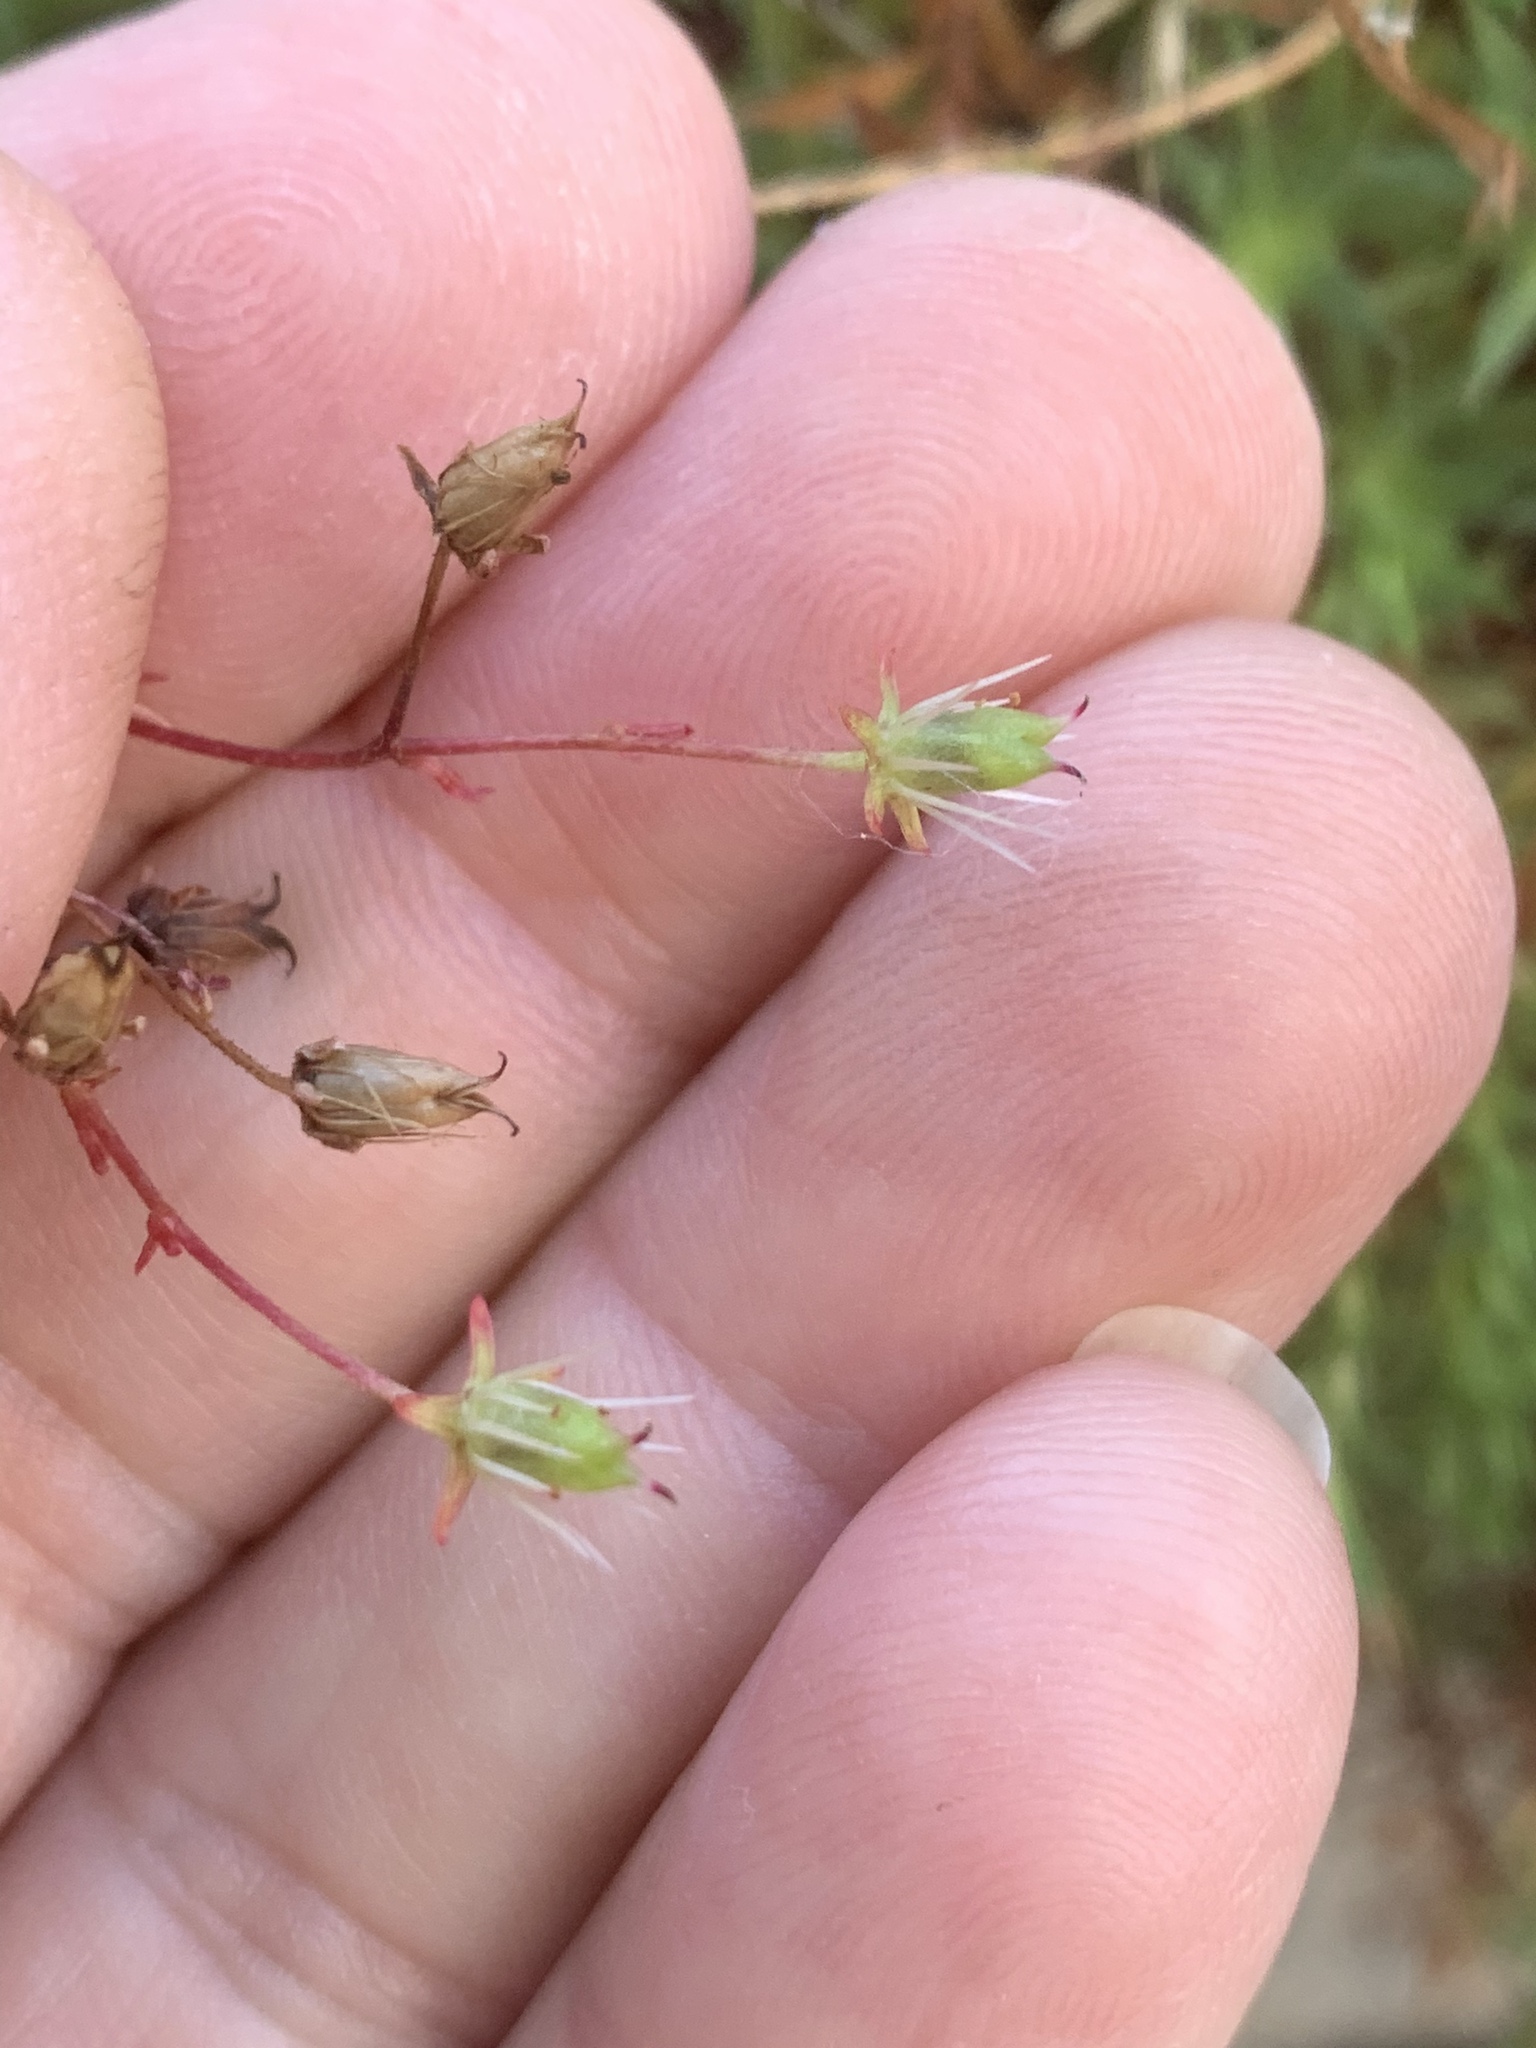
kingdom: Plantae
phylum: Tracheophyta
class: Magnoliopsida
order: Saxifragales
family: Saxifragaceae
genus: Saxifraga
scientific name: Saxifraga bronchialis
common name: Matted saxifrage
